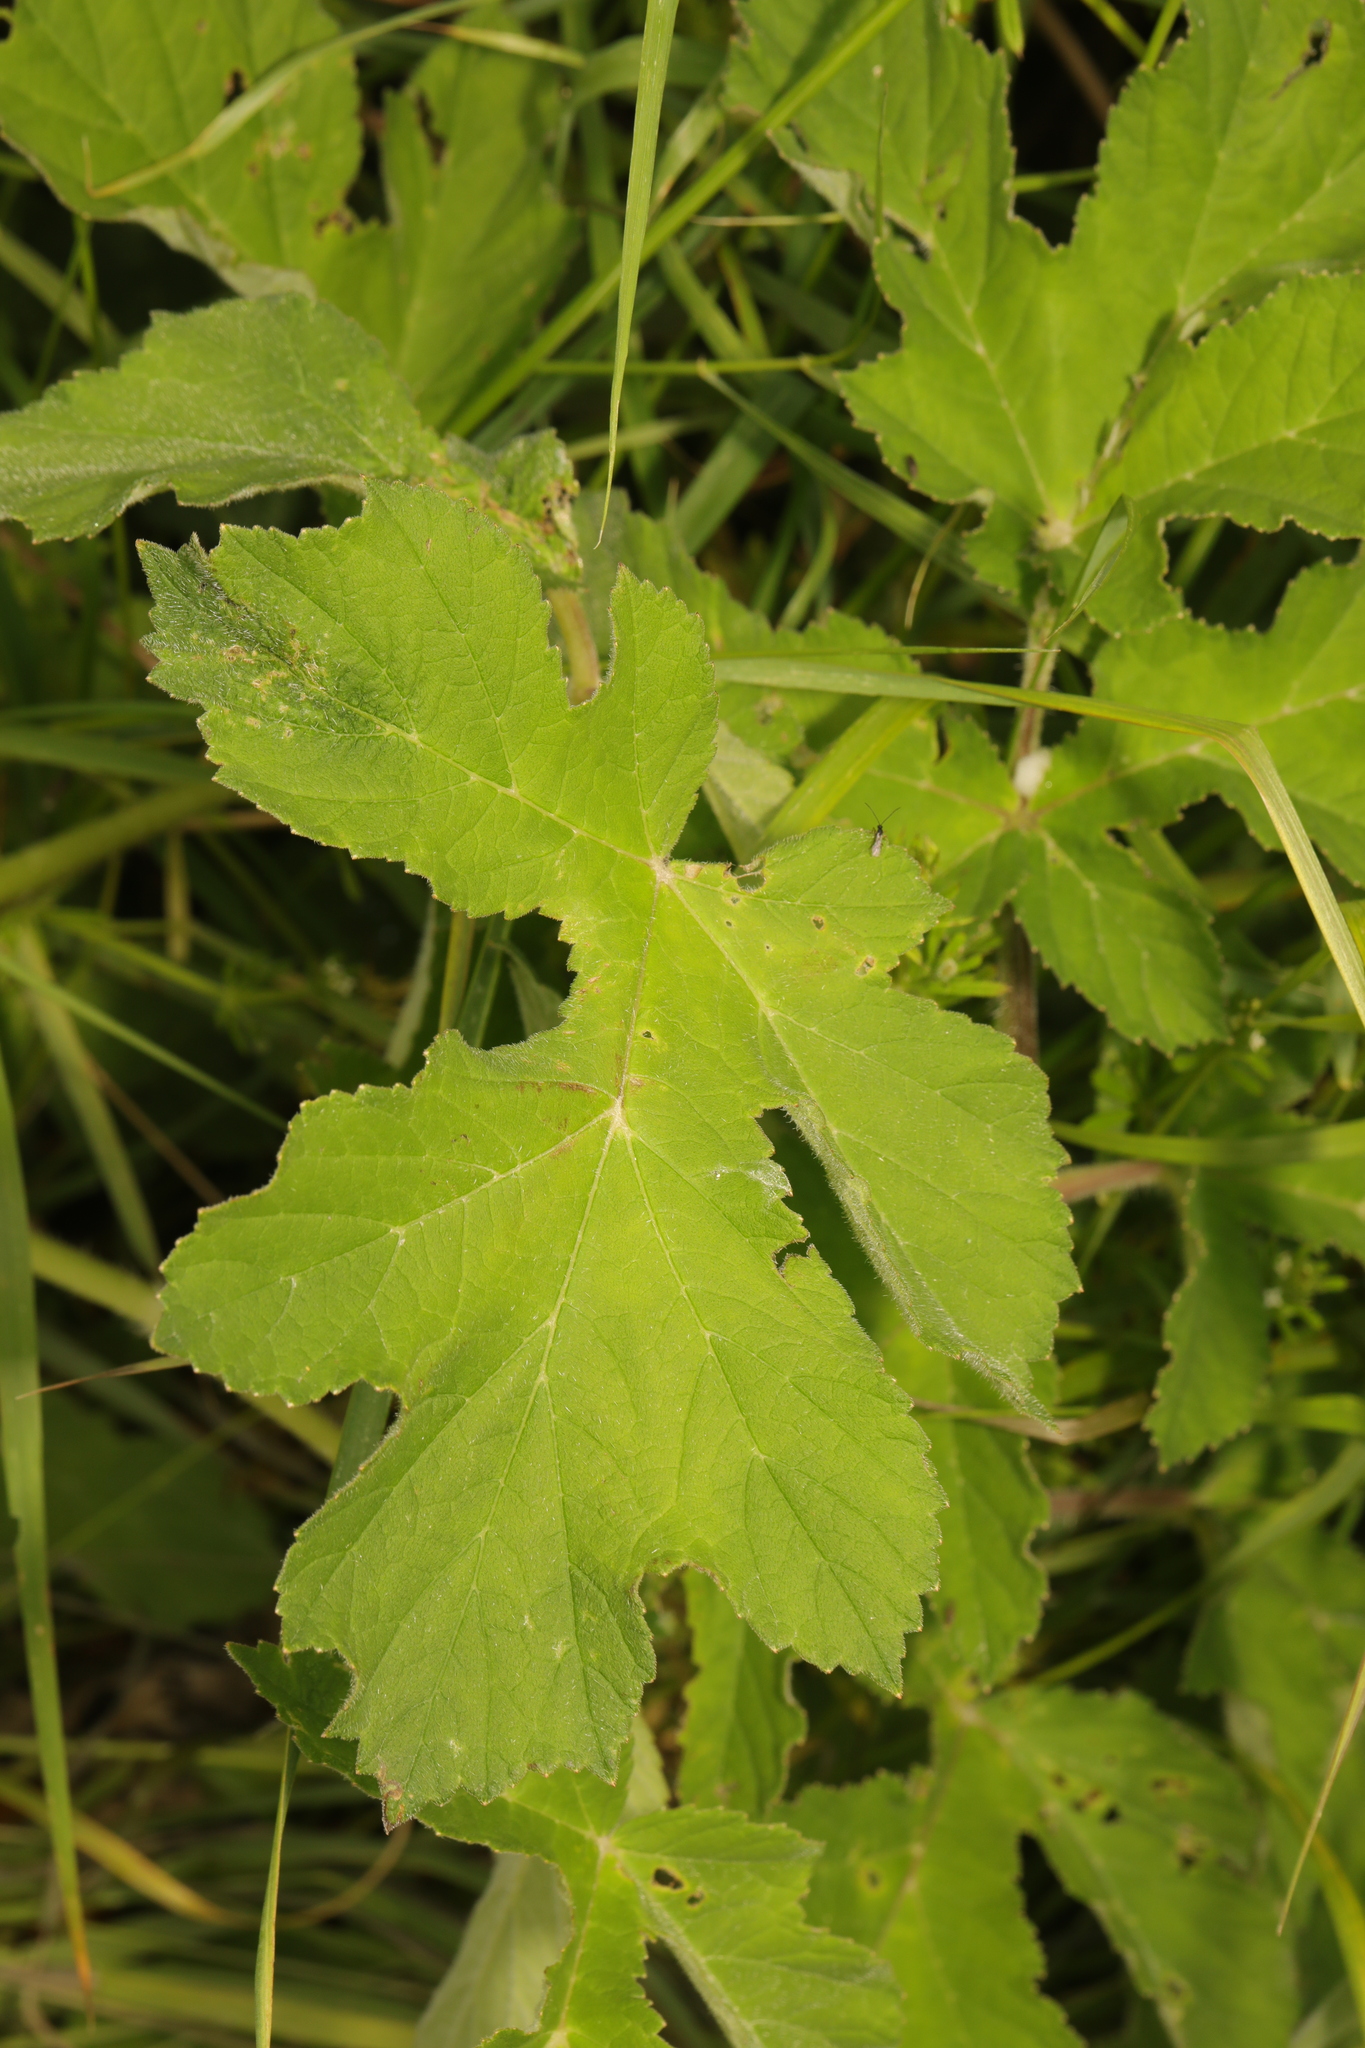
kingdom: Plantae
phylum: Tracheophyta
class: Magnoliopsida
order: Apiales
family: Apiaceae
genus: Heracleum
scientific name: Heracleum sphondylium
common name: Hogweed
